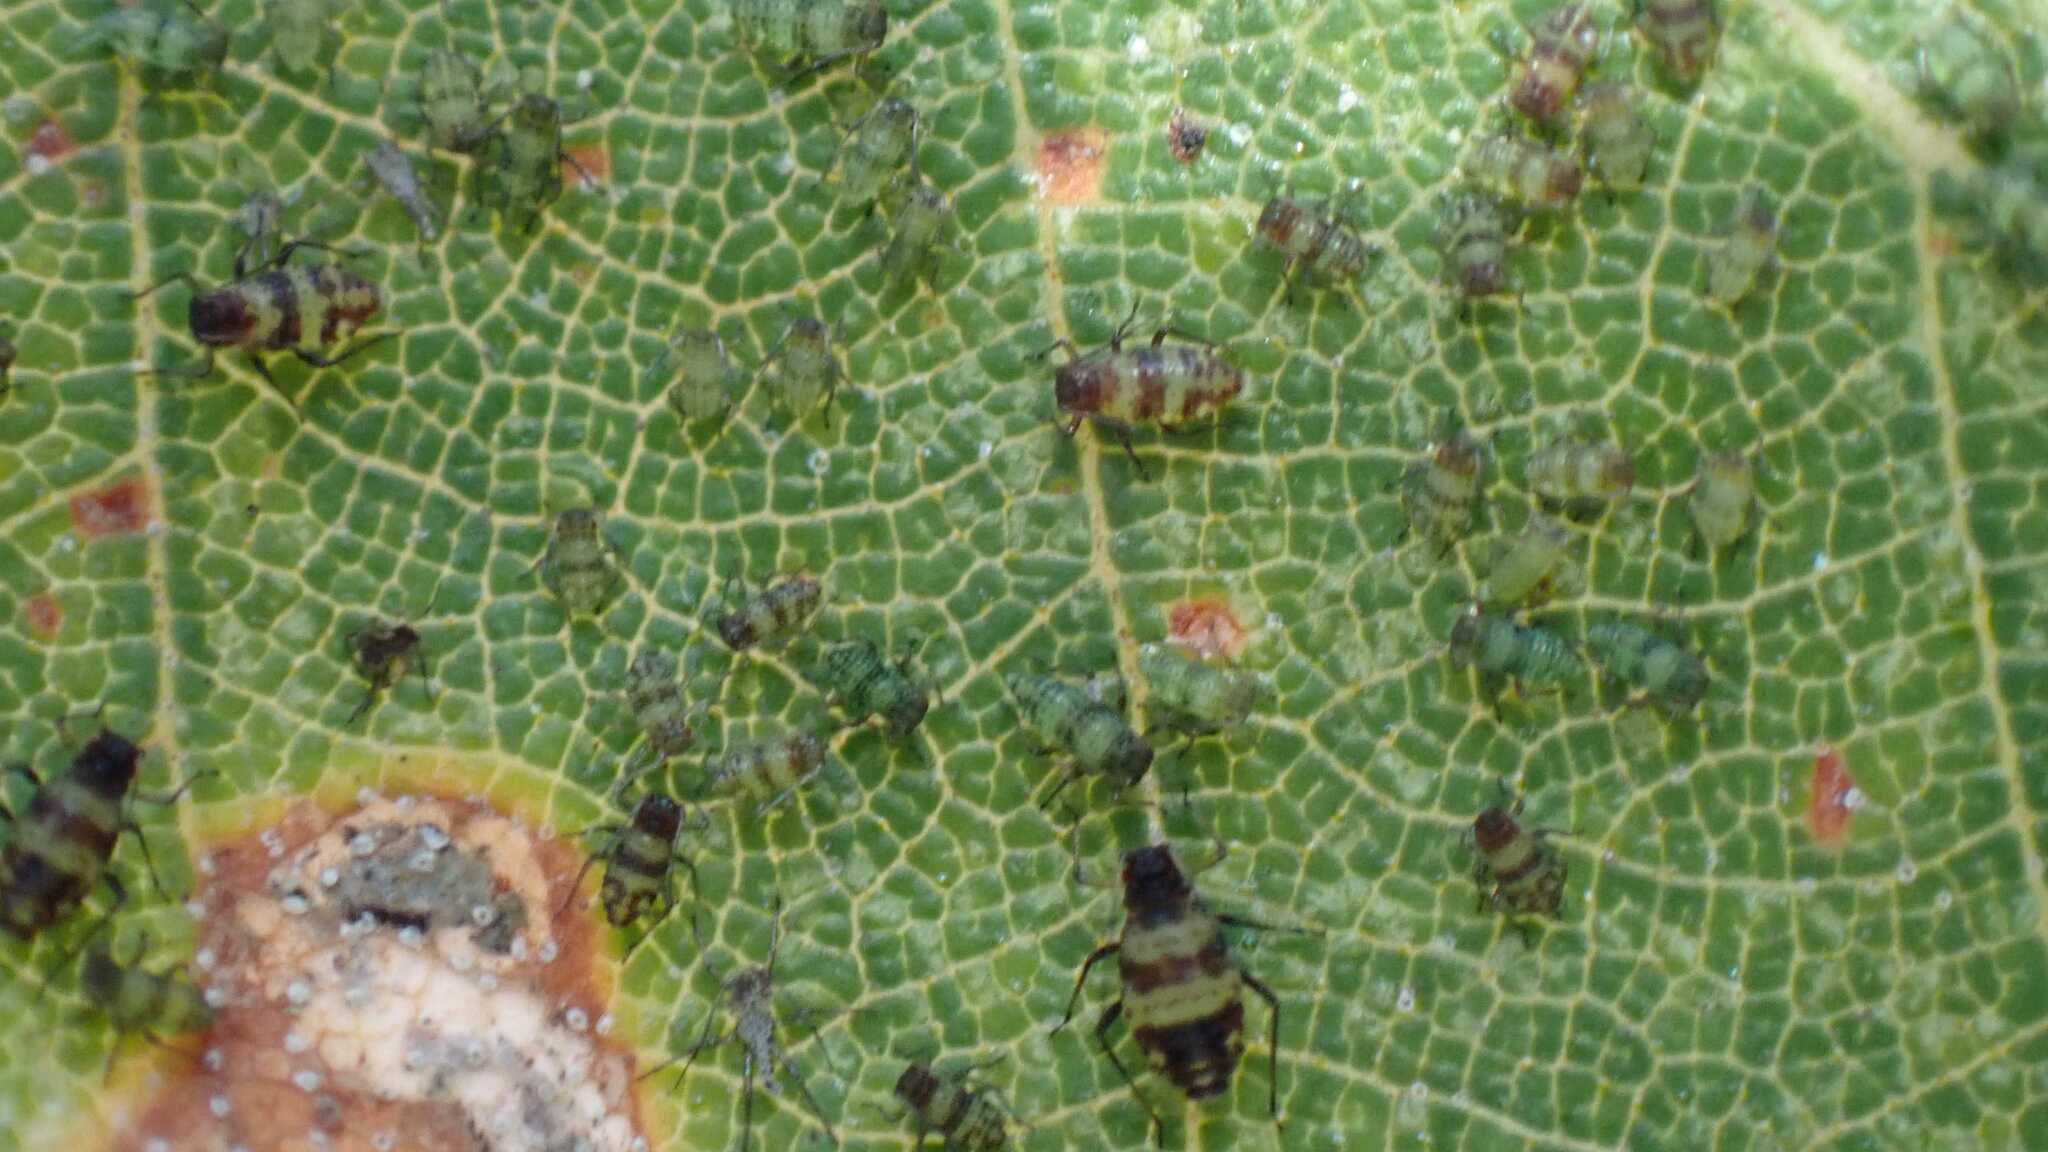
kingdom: Animalia
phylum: Arthropoda
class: Insecta
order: Hemiptera
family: Aphididae
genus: Callipterinella
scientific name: Callipterinella tuberculata
